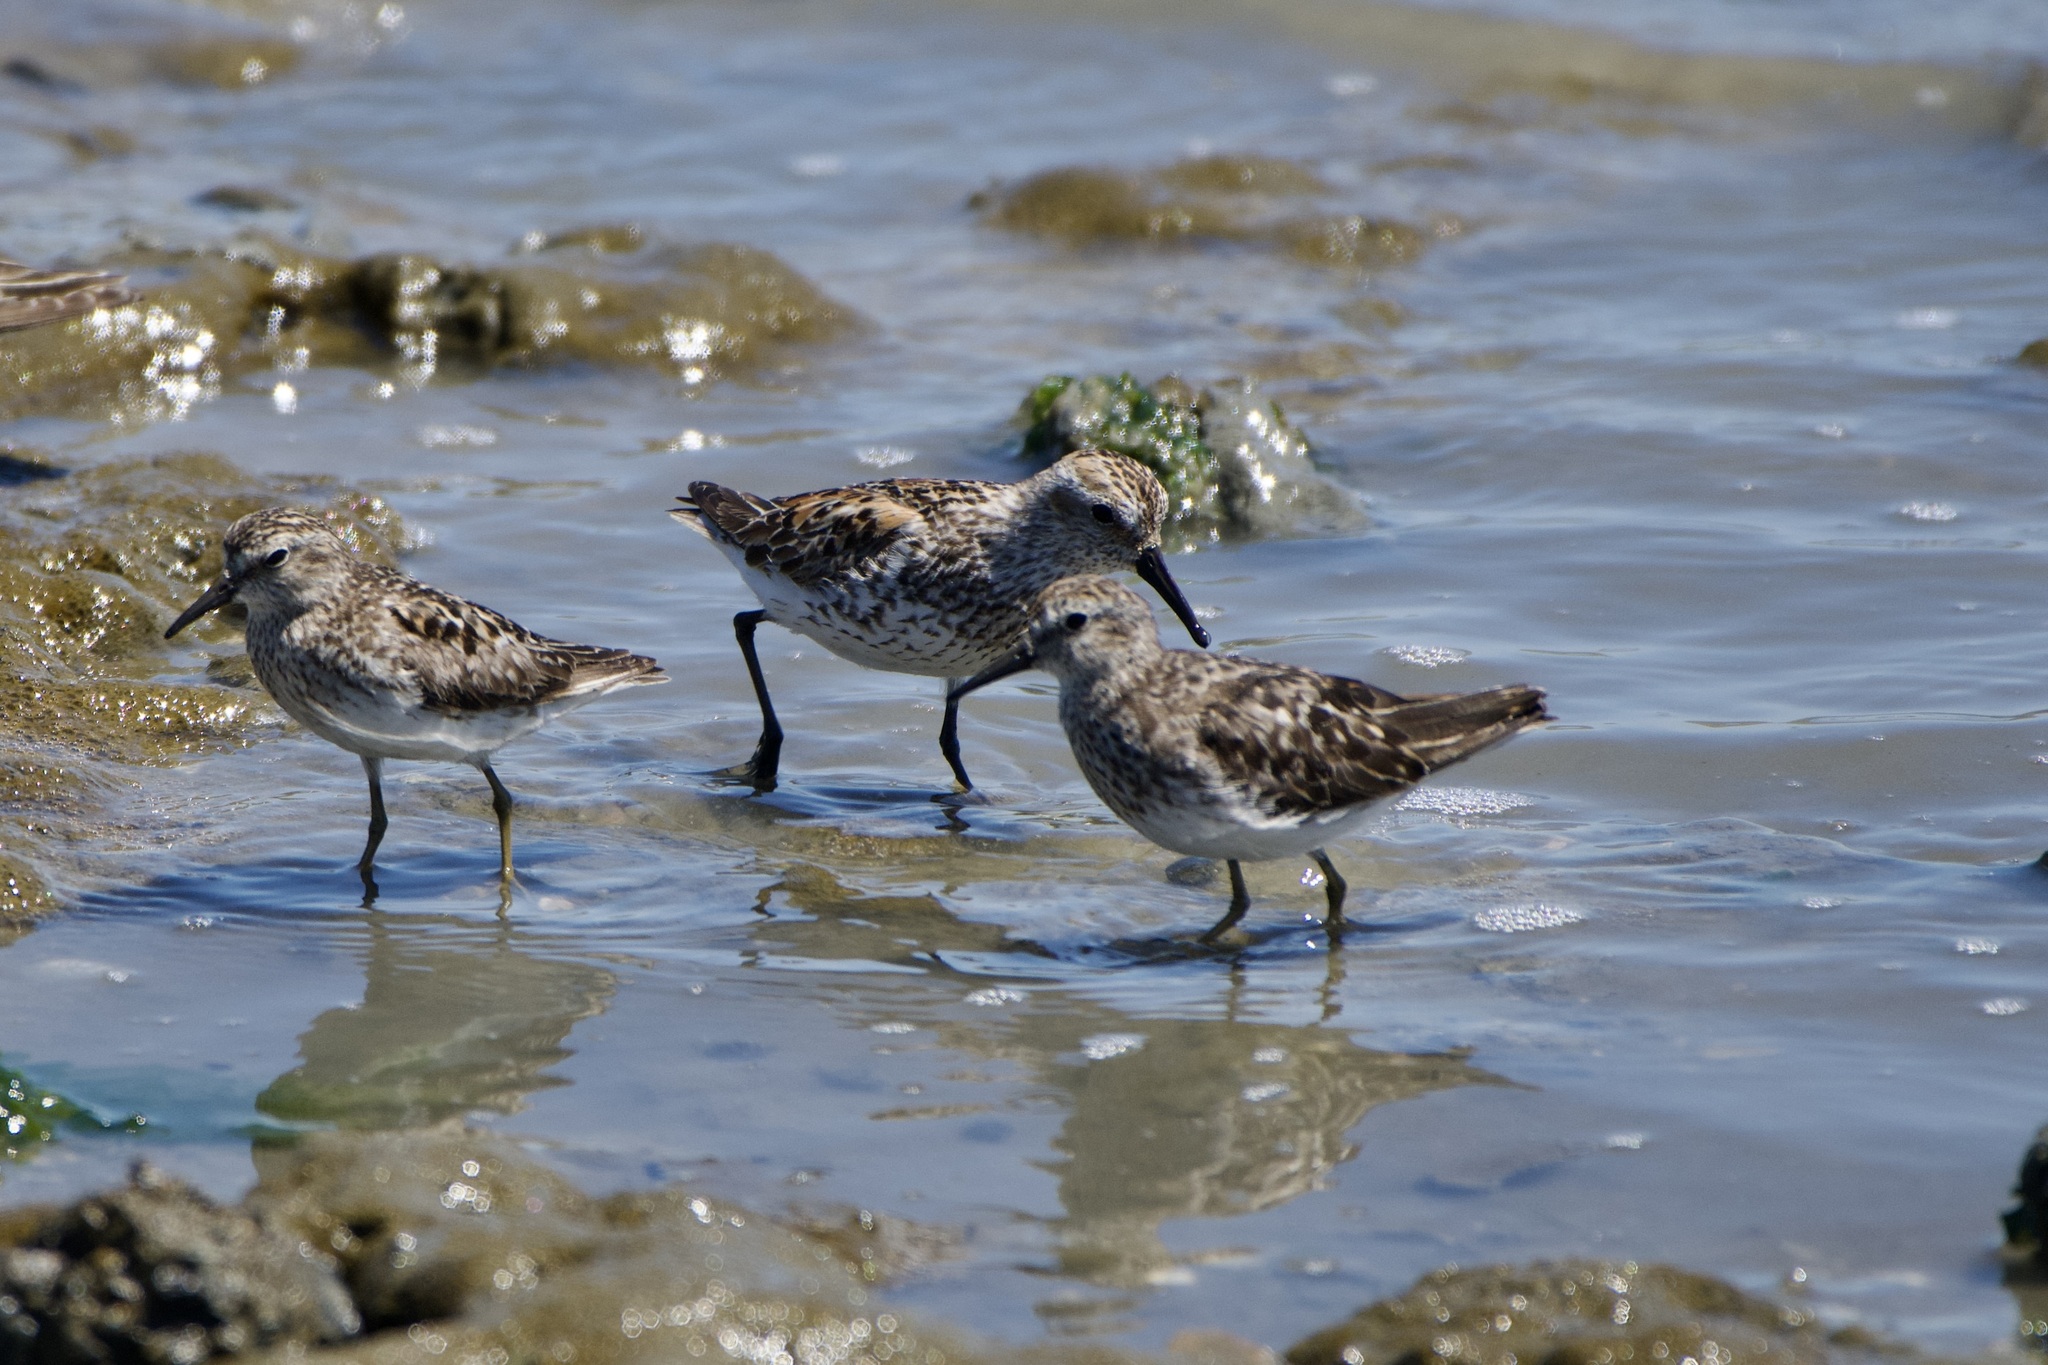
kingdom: Animalia
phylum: Chordata
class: Aves
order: Charadriiformes
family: Scolopacidae
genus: Calidris
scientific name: Calidris mauri
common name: Western sandpiper
